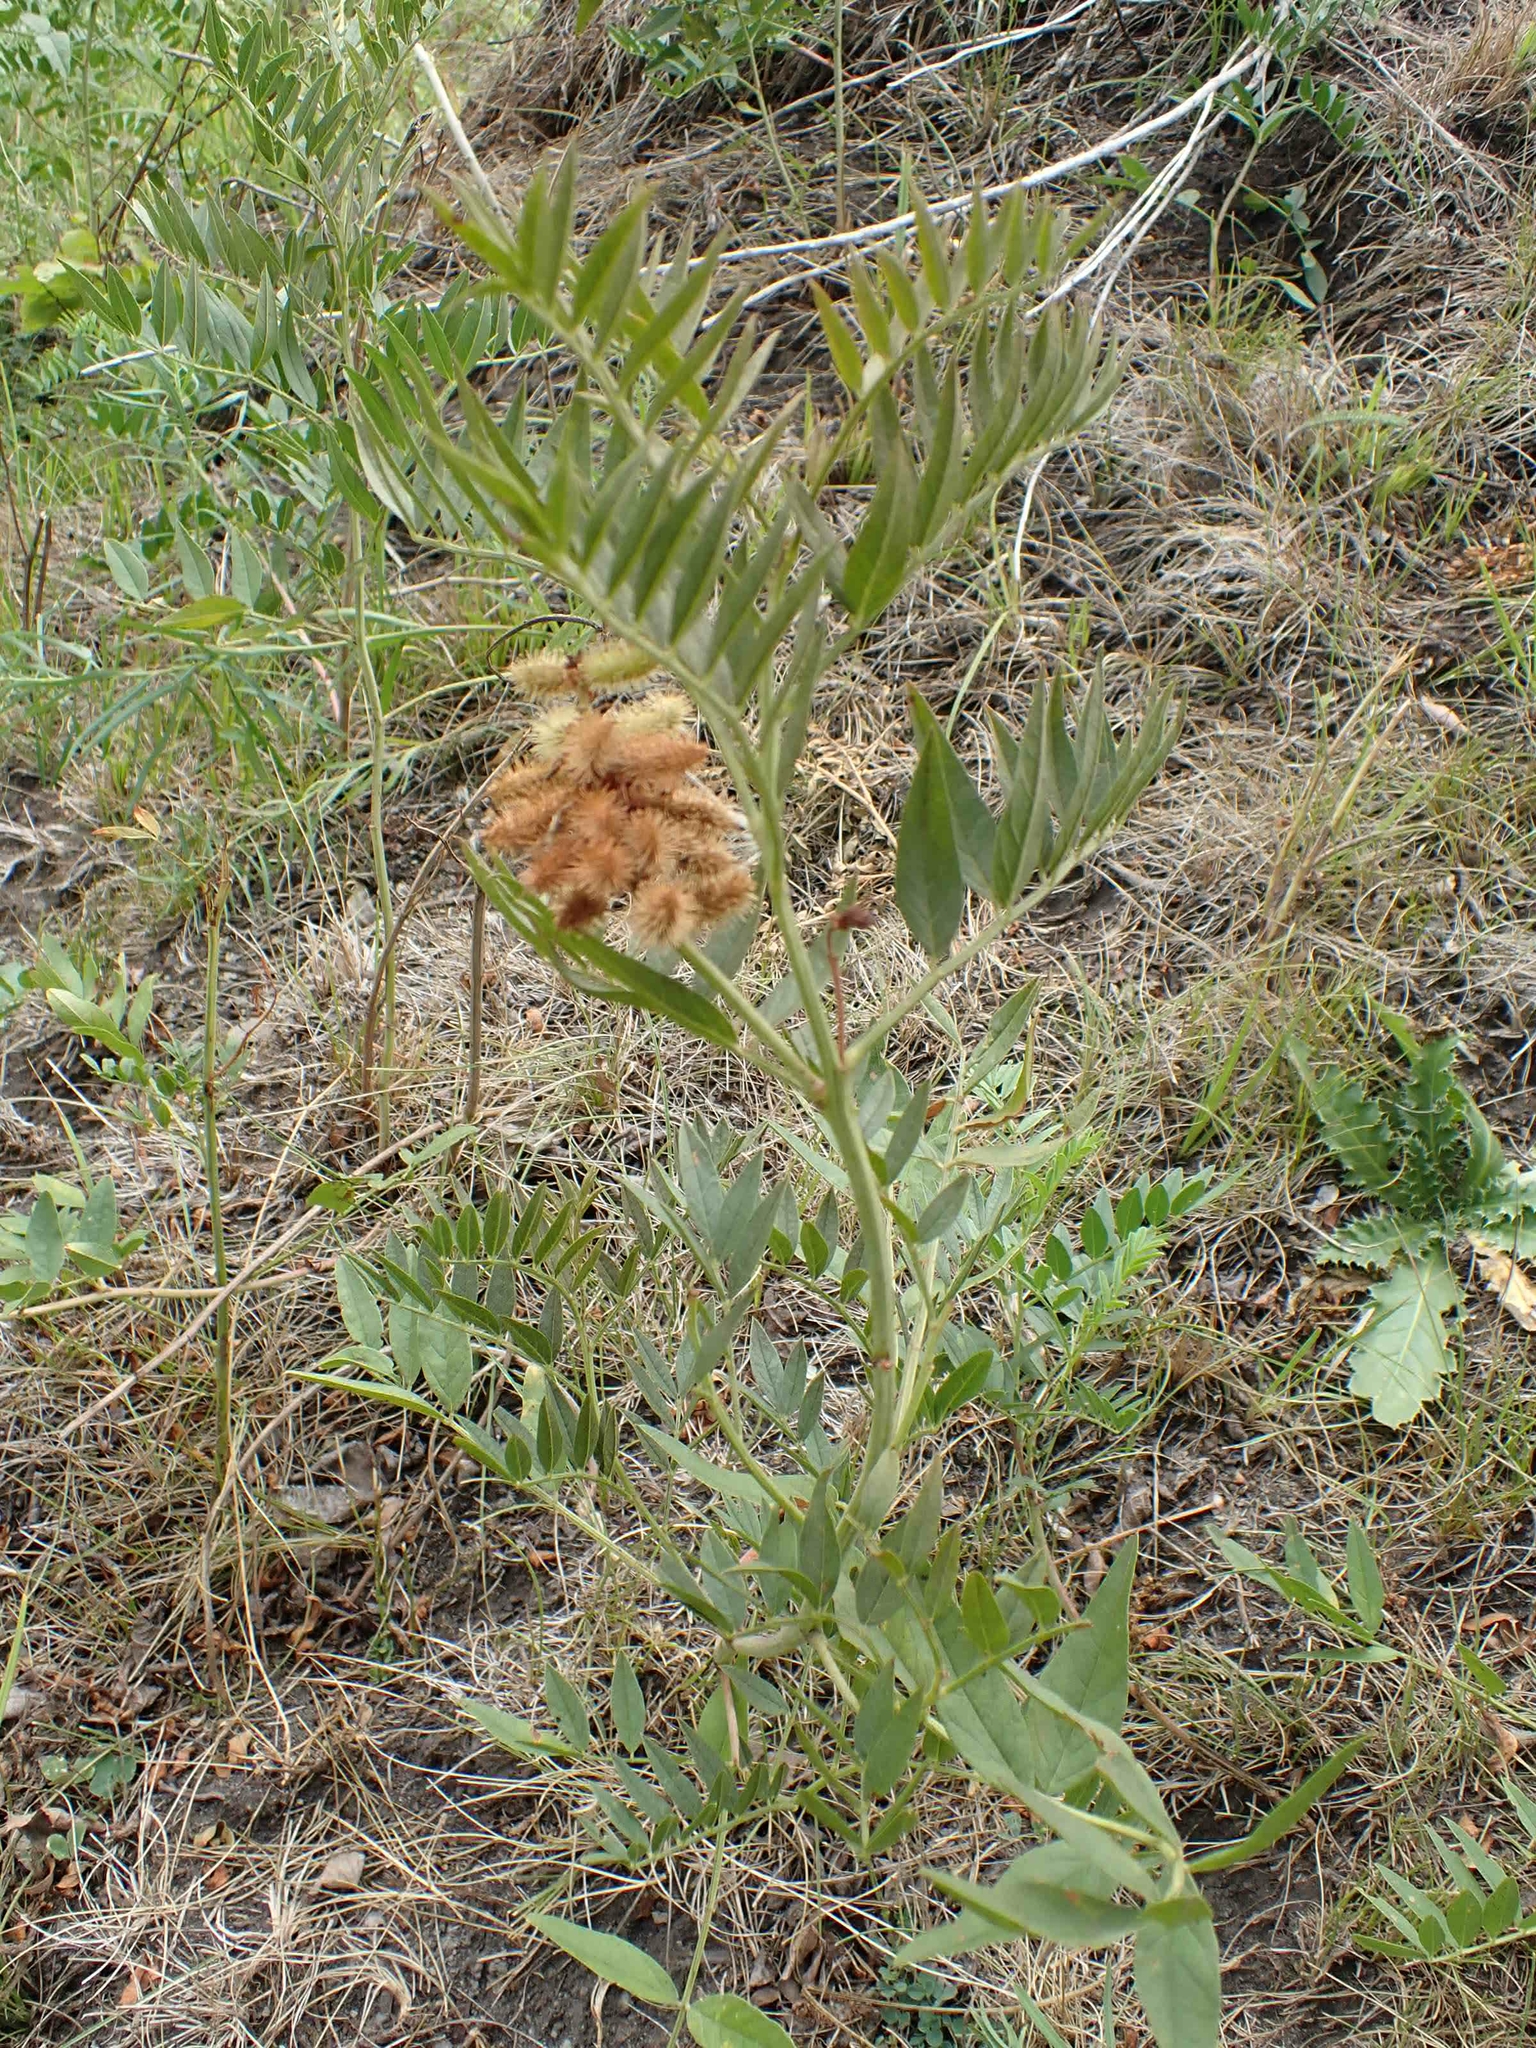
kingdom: Plantae
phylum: Tracheophyta
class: Magnoliopsida
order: Fabales
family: Fabaceae
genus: Glycyrrhiza
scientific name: Glycyrrhiza lepidota
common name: American liquorice
